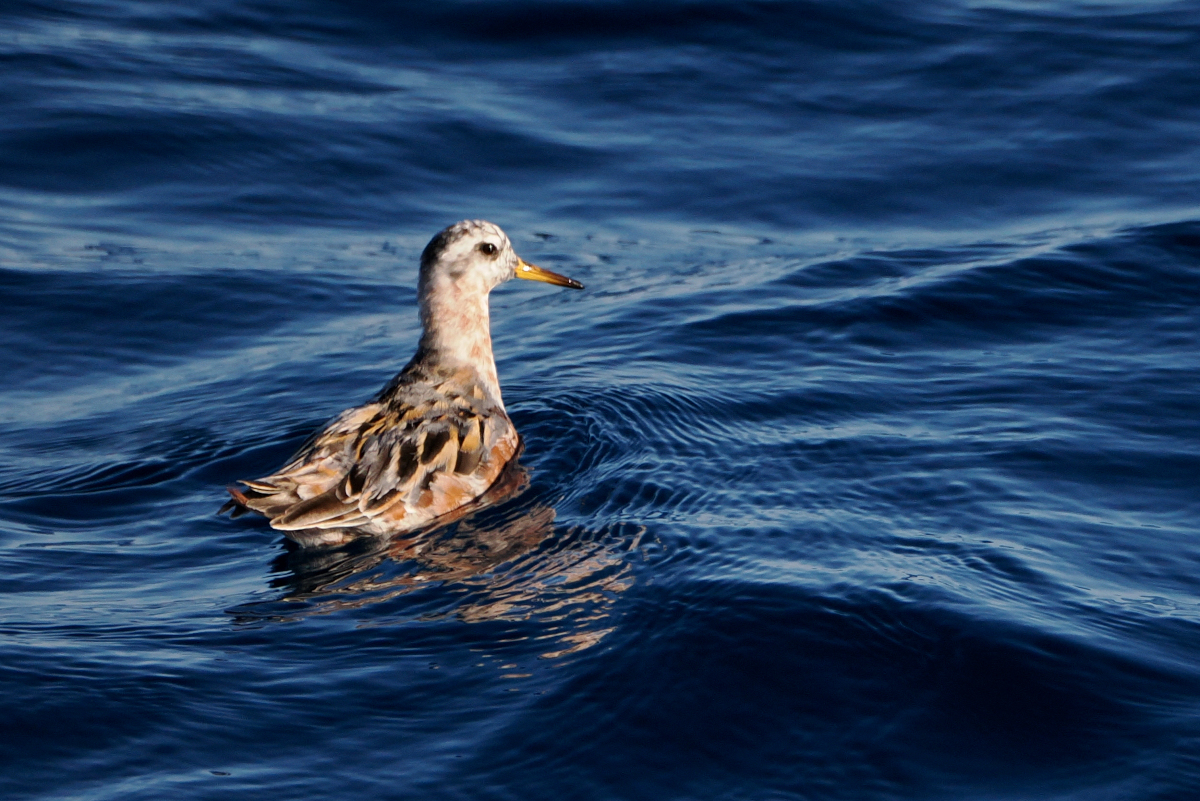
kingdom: Animalia
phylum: Chordata
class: Aves
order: Charadriiformes
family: Scolopacidae
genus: Phalaropus
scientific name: Phalaropus fulicarius
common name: Red phalarope
